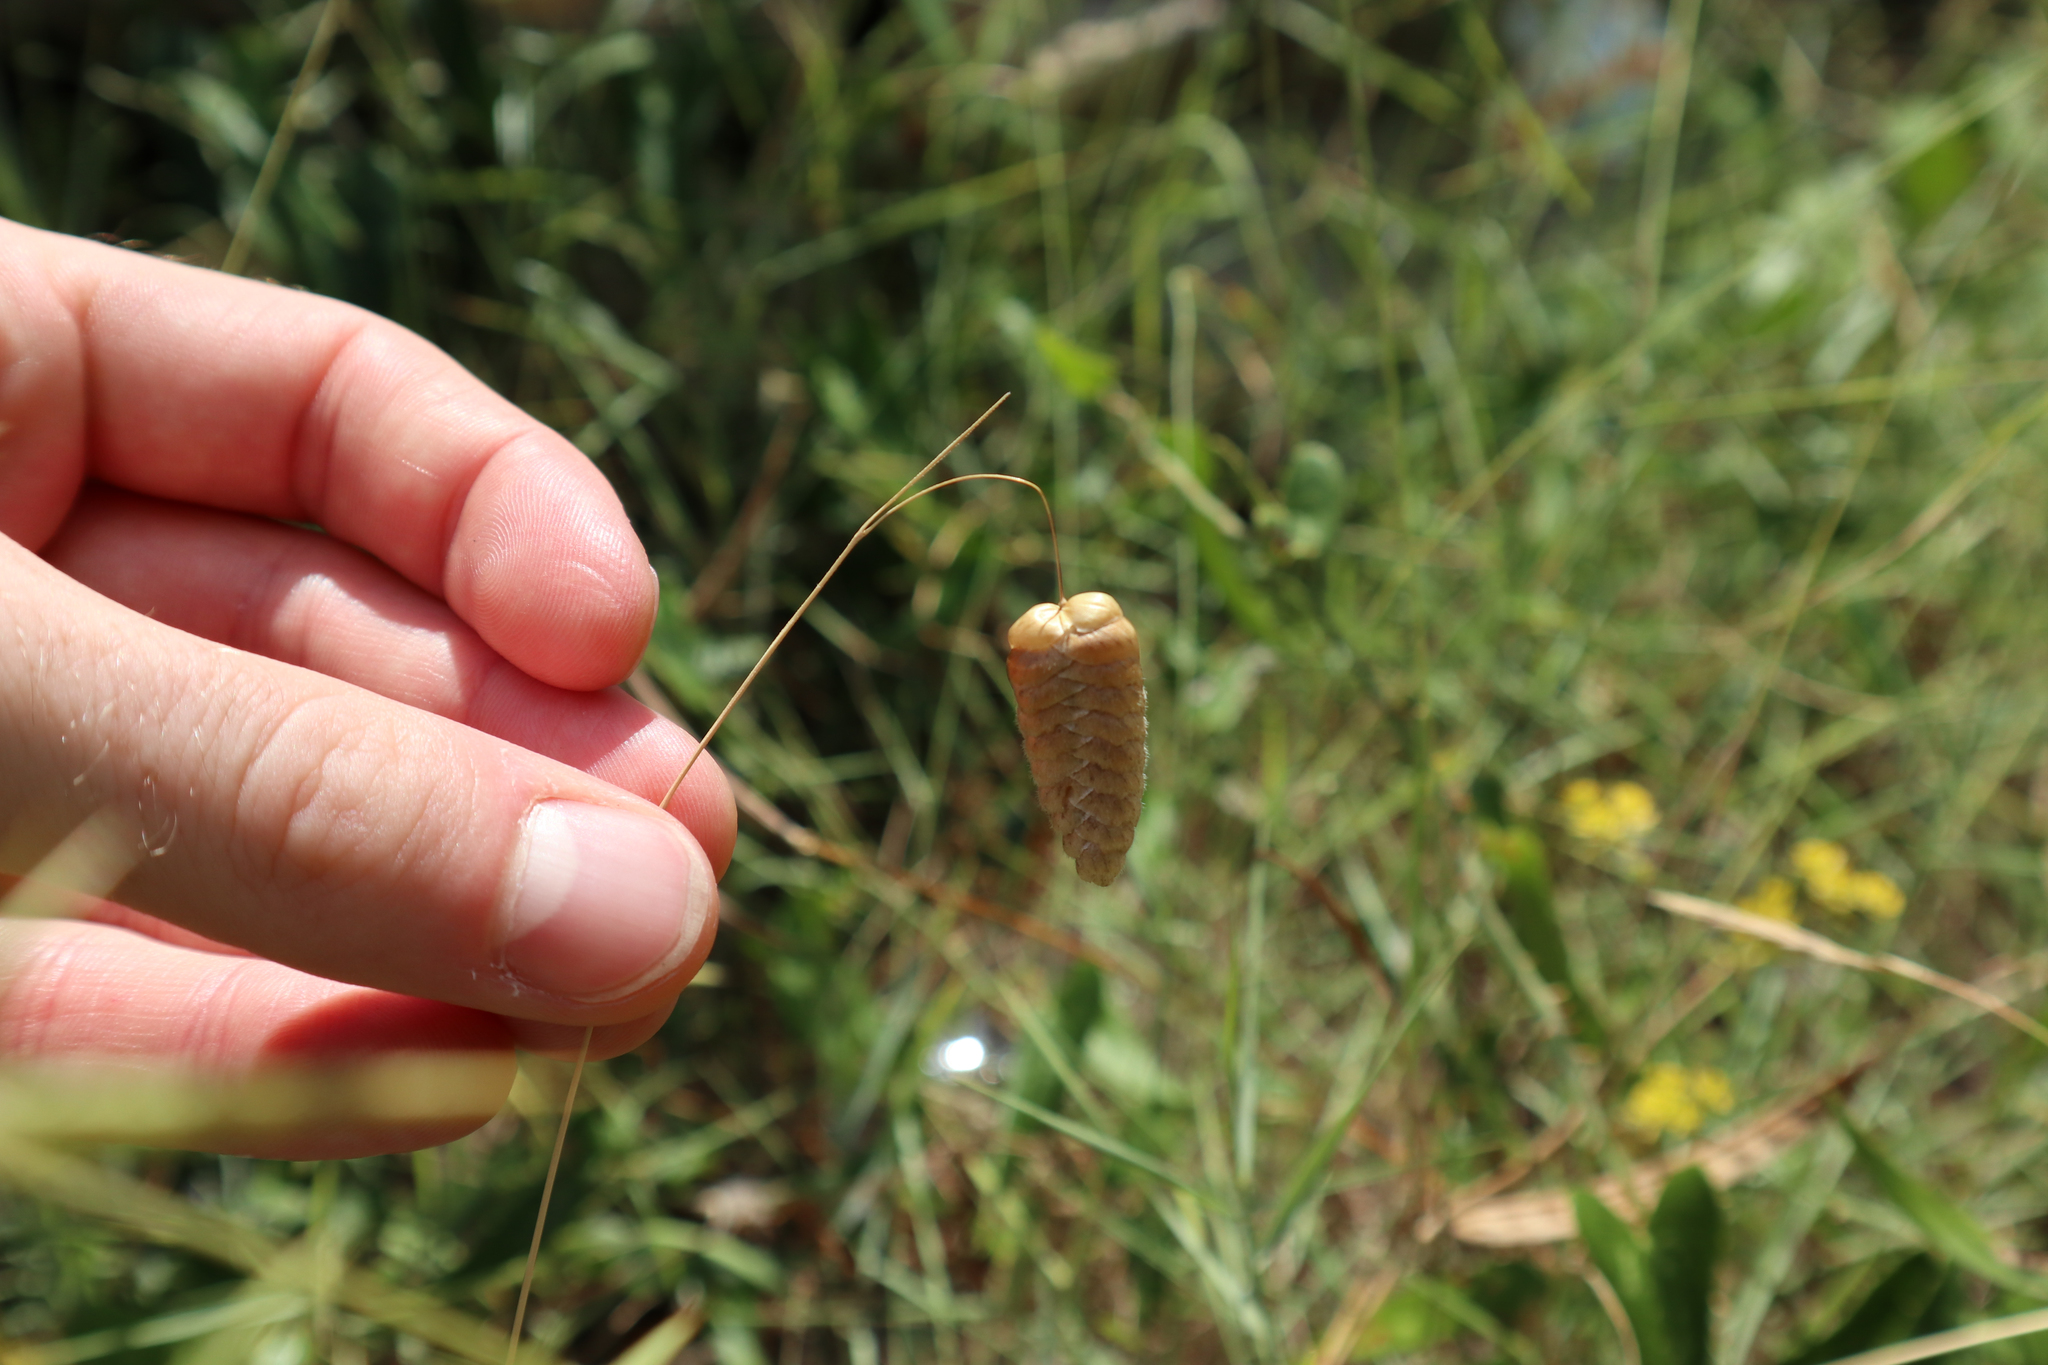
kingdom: Plantae
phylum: Tracheophyta
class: Liliopsida
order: Poales
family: Poaceae
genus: Briza
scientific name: Briza maxima
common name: Big quakinggrass
